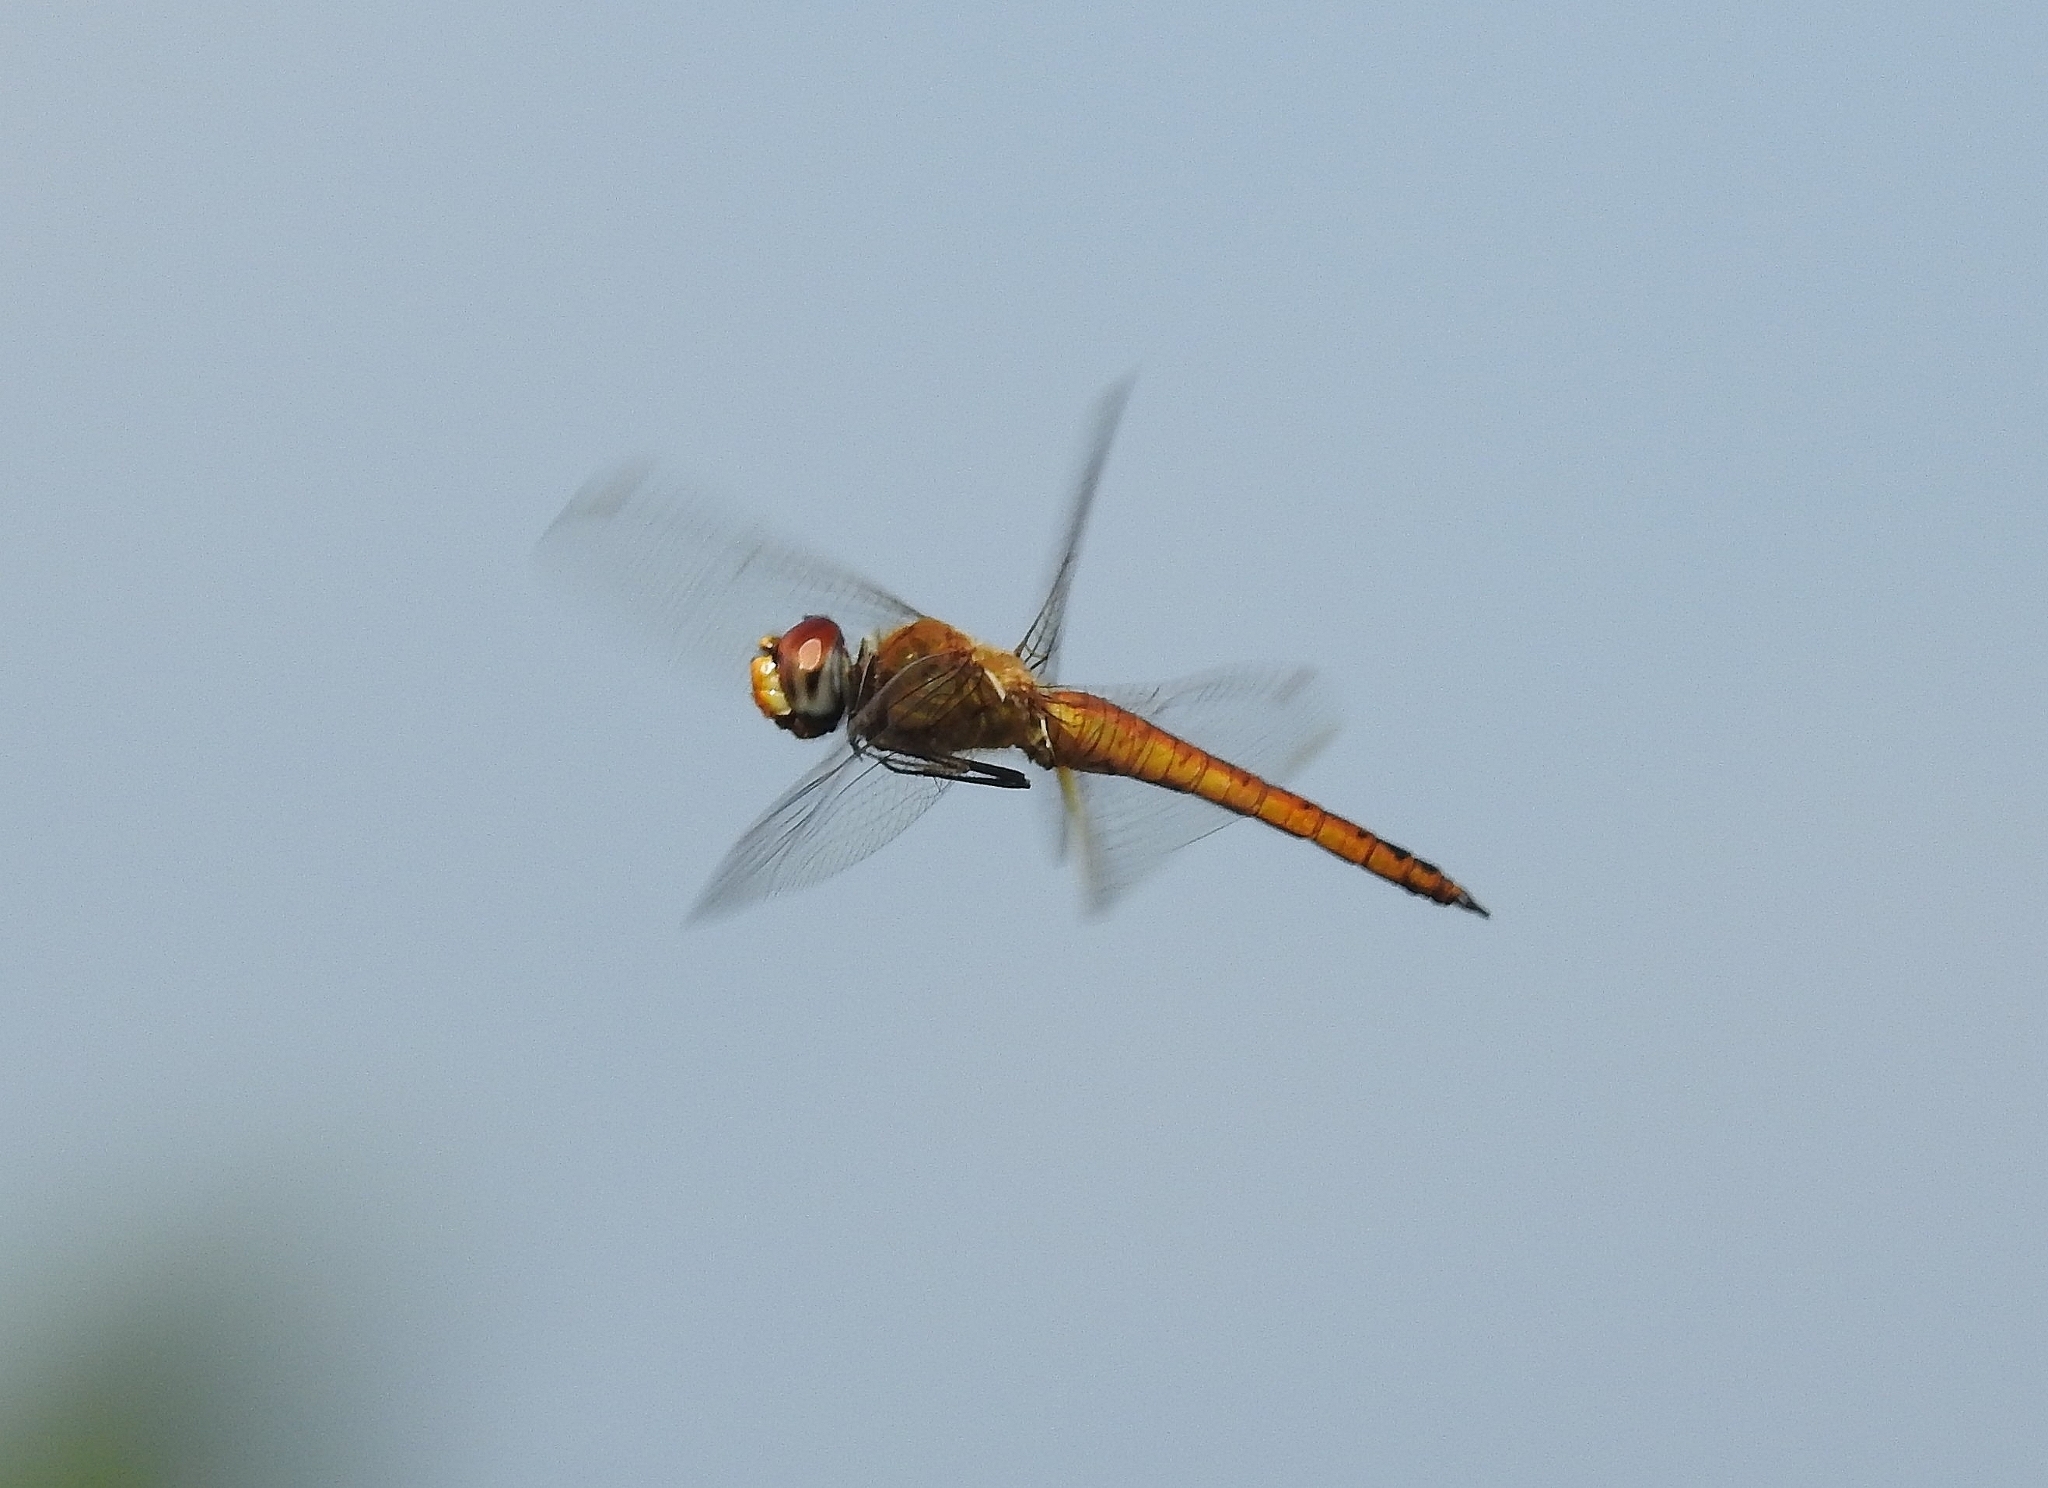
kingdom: Animalia
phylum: Arthropoda
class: Insecta
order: Odonata
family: Libellulidae
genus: Pantala
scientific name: Pantala flavescens
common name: Wandering glider
